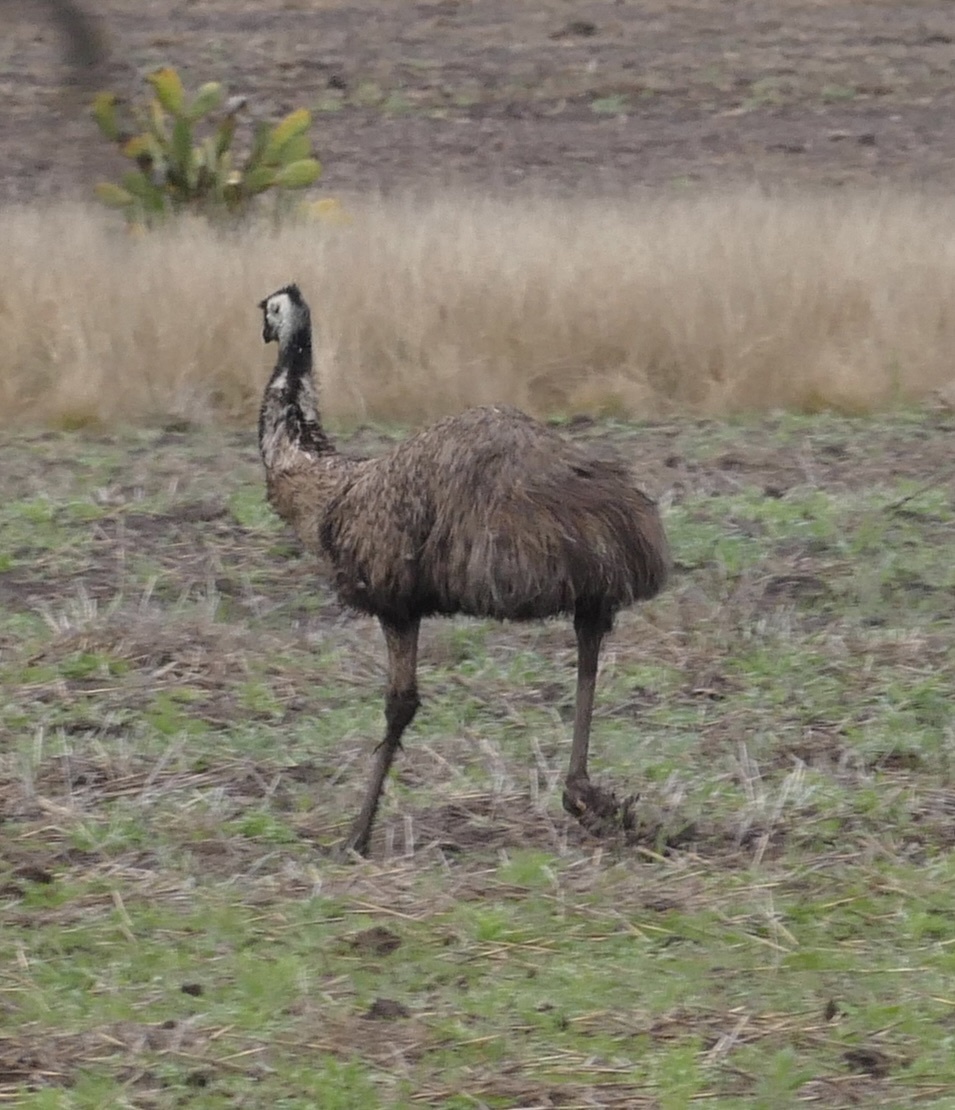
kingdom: Animalia
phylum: Chordata
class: Aves
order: Casuariiformes
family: Dromaiidae
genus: Dromaius
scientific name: Dromaius novaehollandiae
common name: Emu
